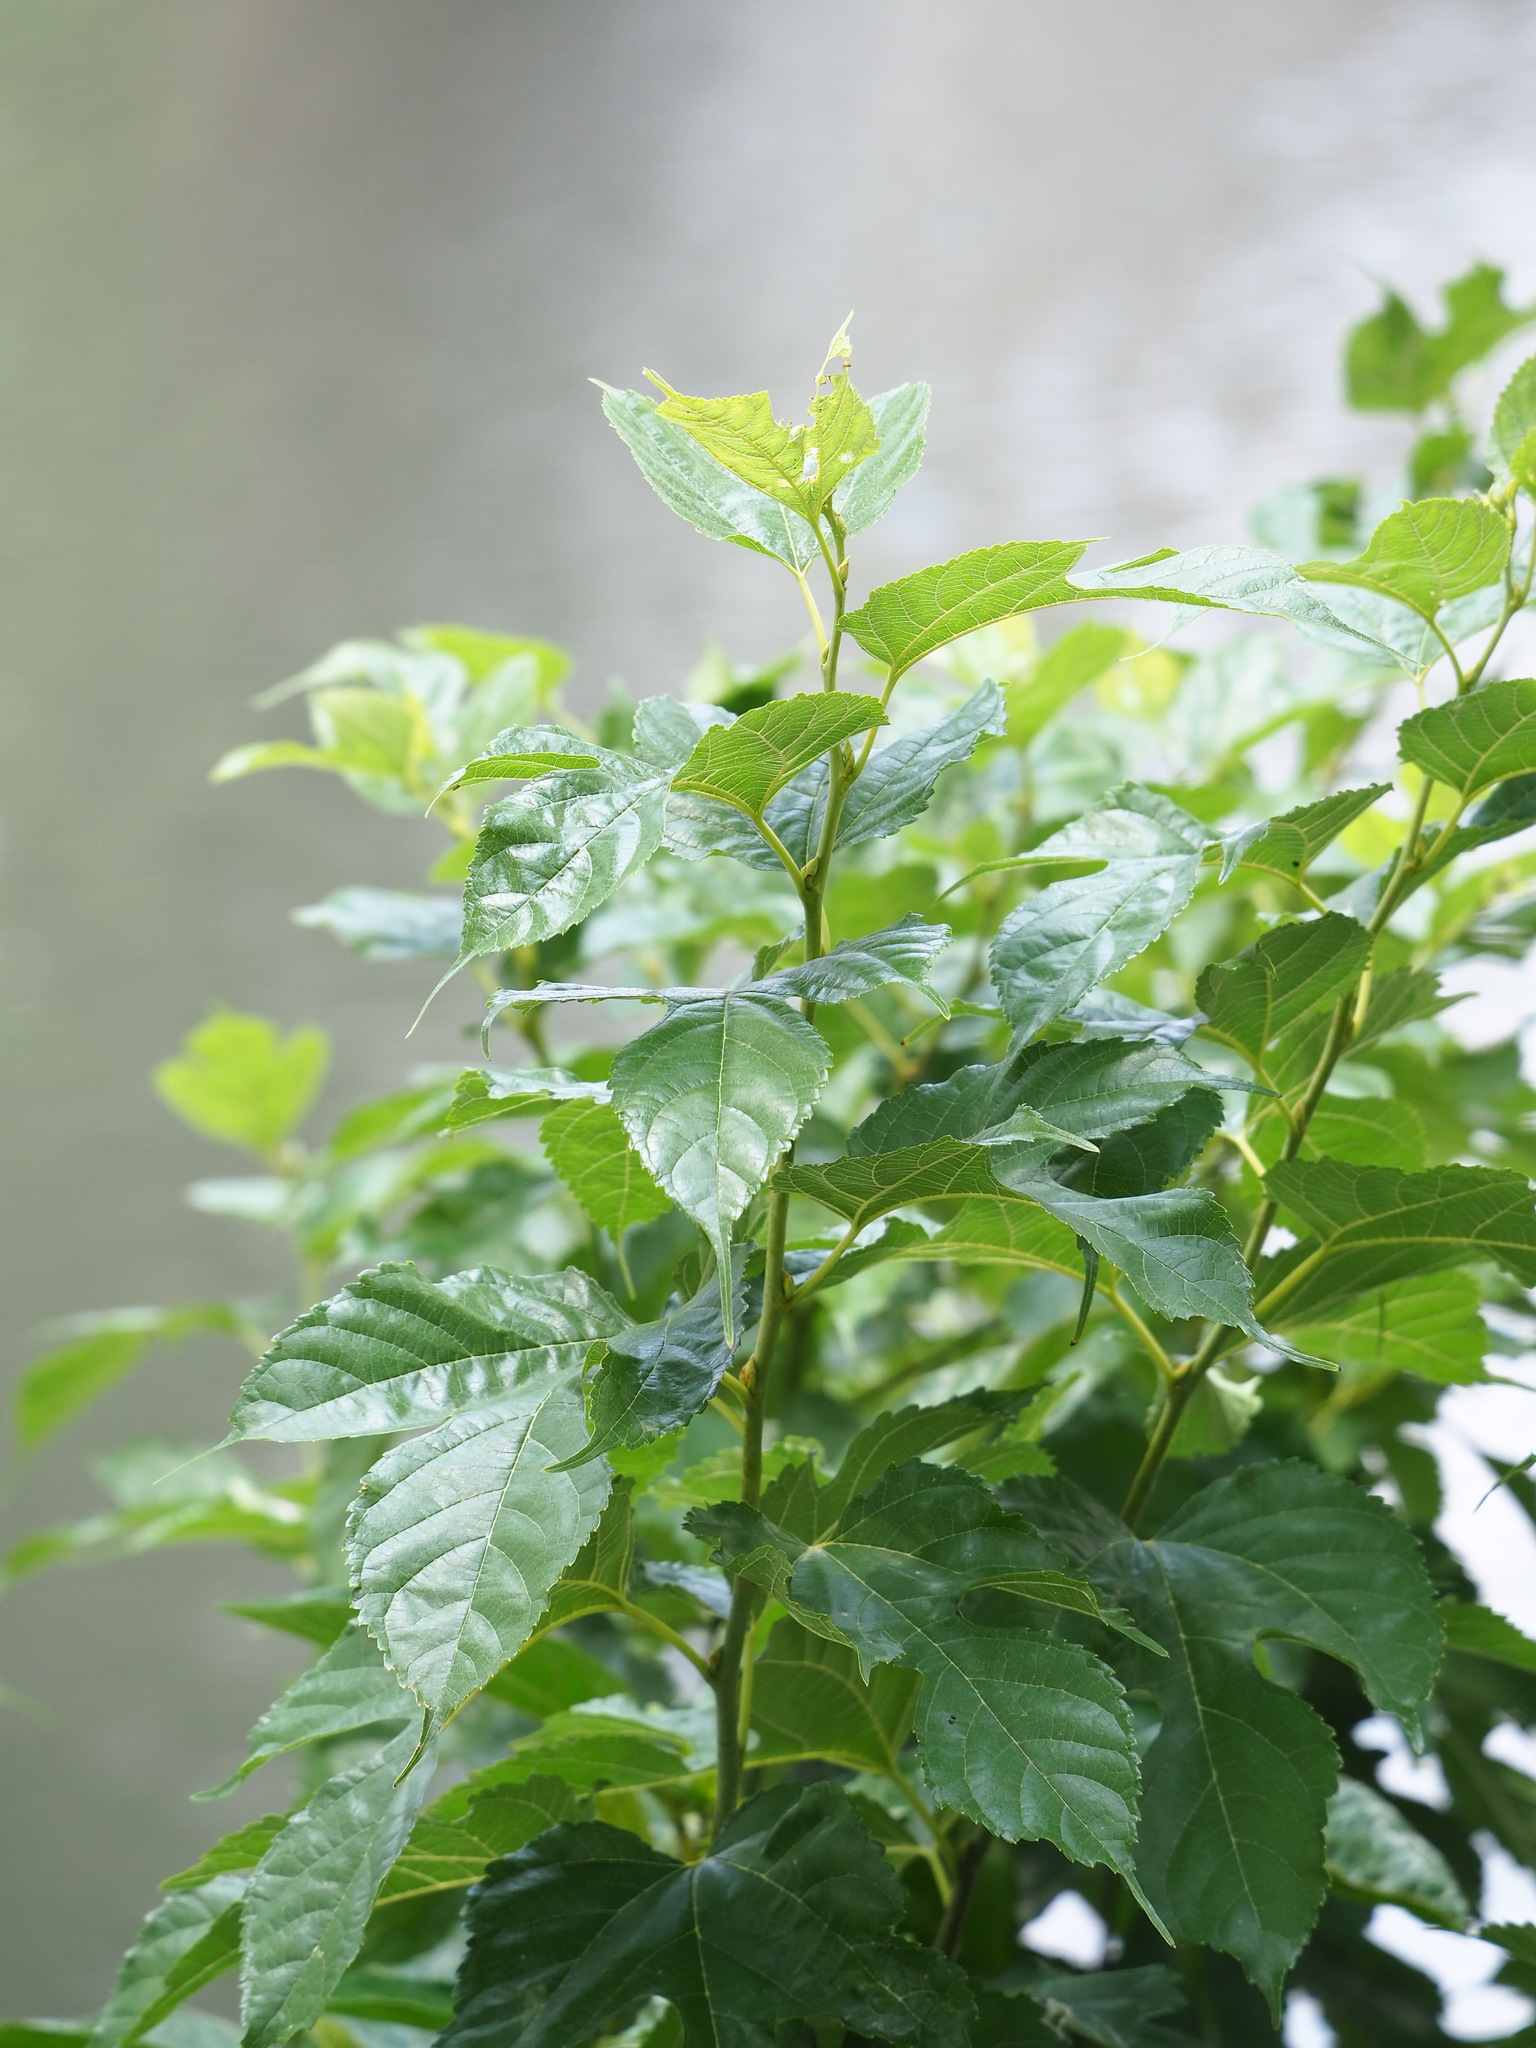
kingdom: Plantae
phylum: Tracheophyta
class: Magnoliopsida
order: Rosales
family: Moraceae
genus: Morus
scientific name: Morus indica
